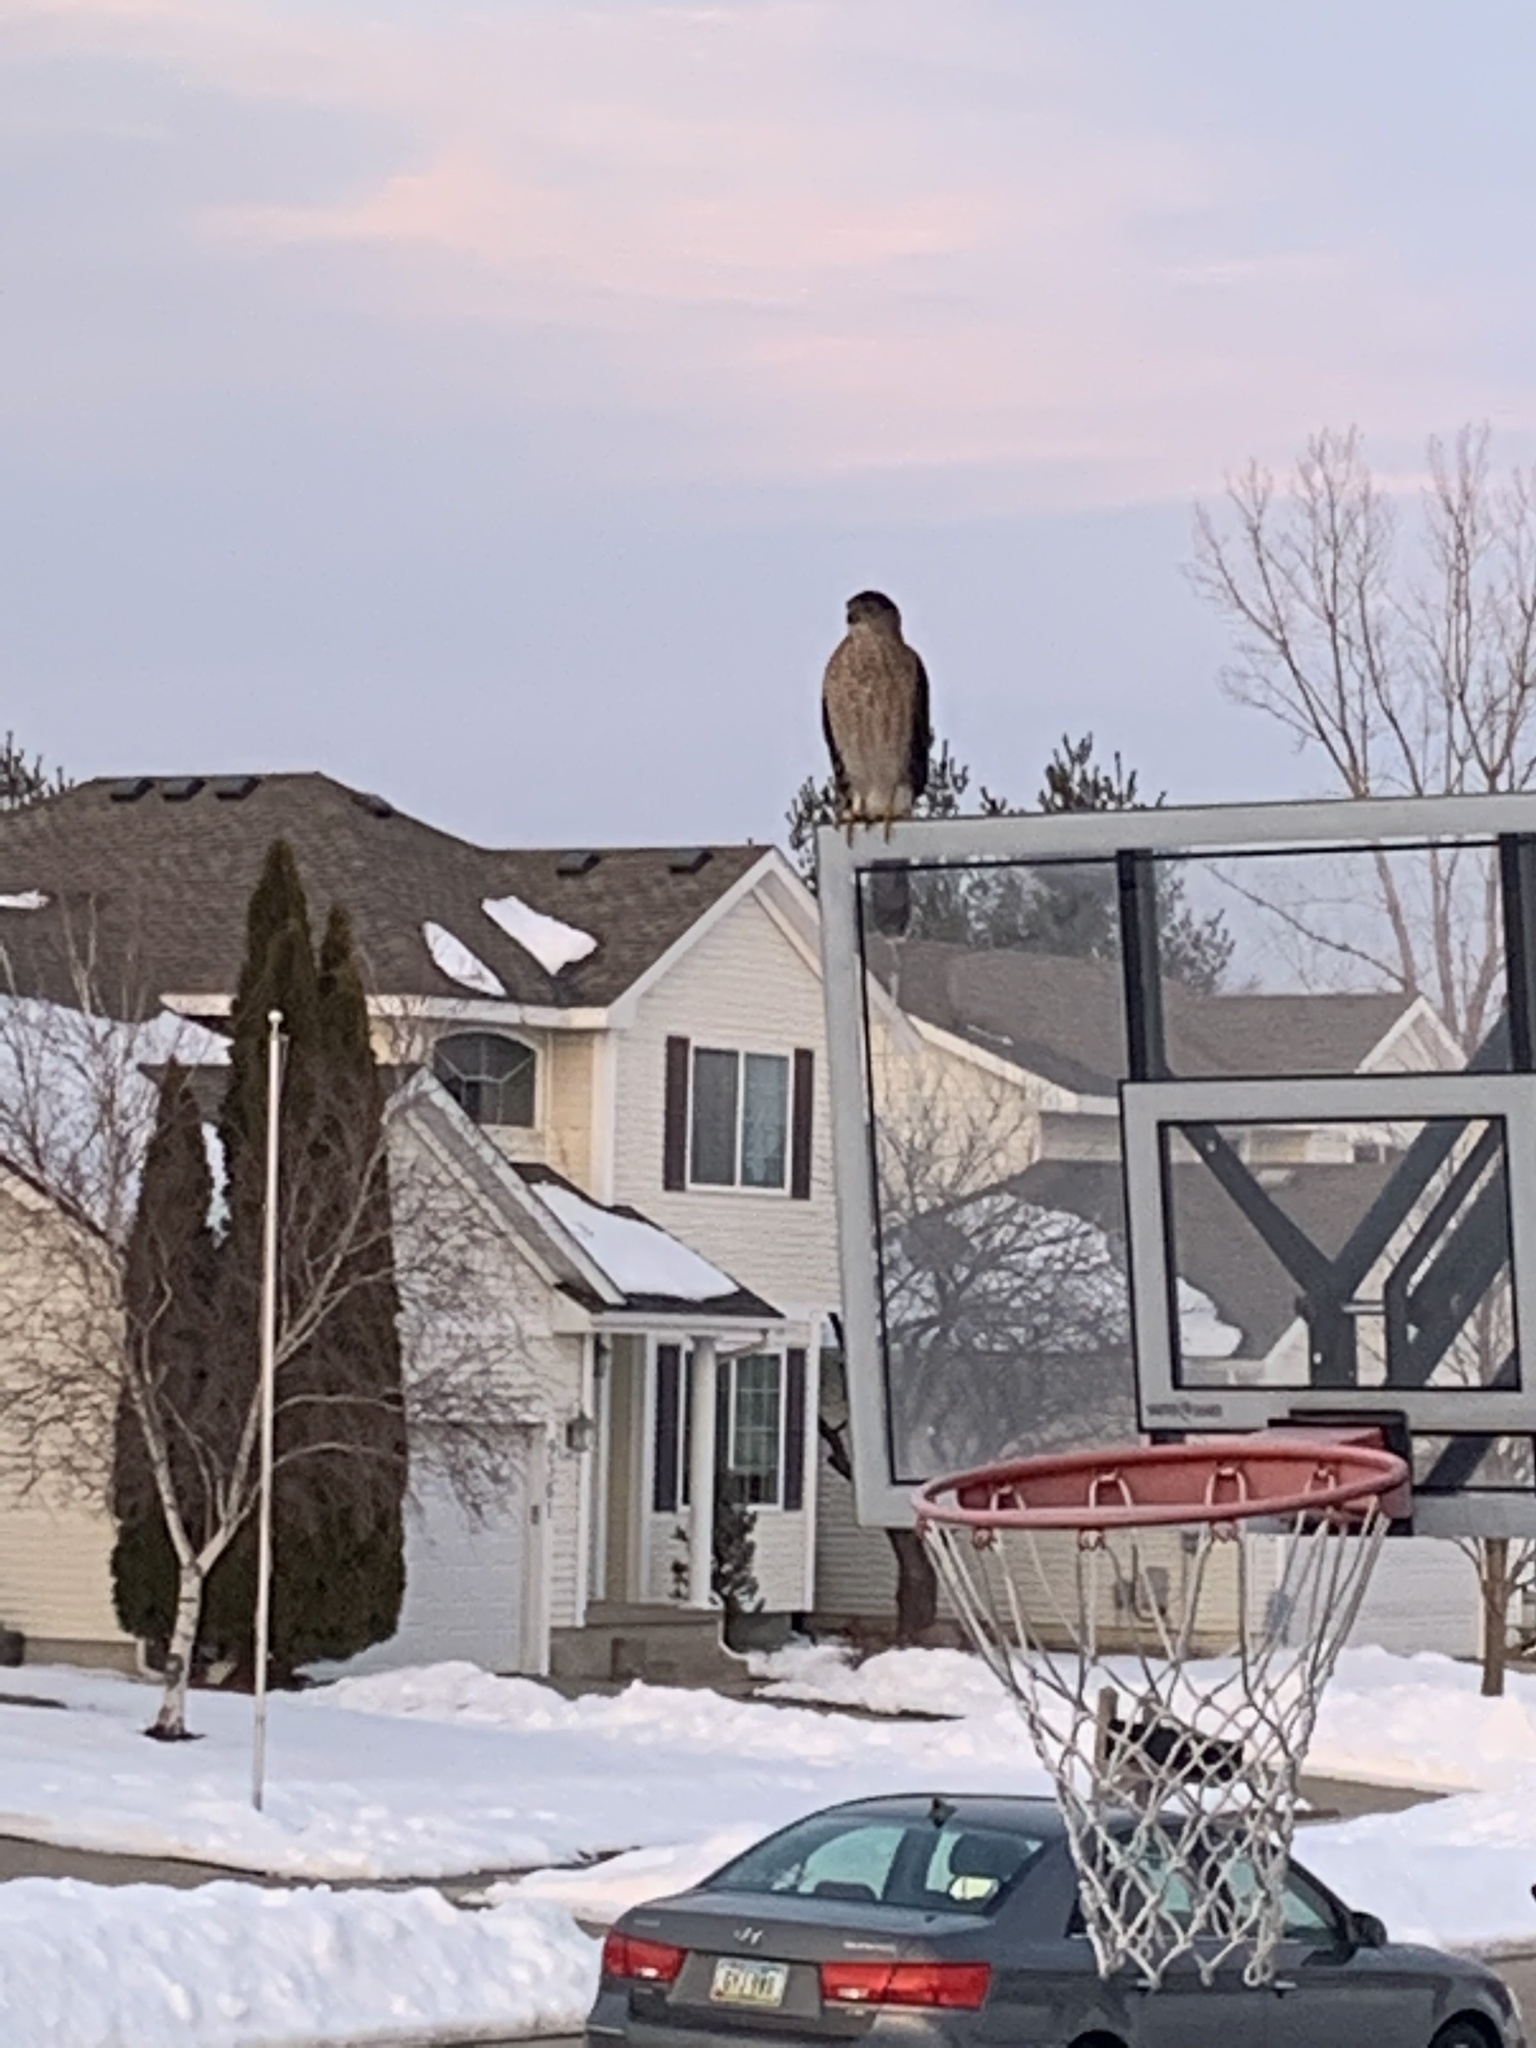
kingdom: Animalia
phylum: Chordata
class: Aves
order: Accipitriformes
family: Accipitridae
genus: Accipiter
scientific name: Accipiter cooperii
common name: Cooper's hawk
